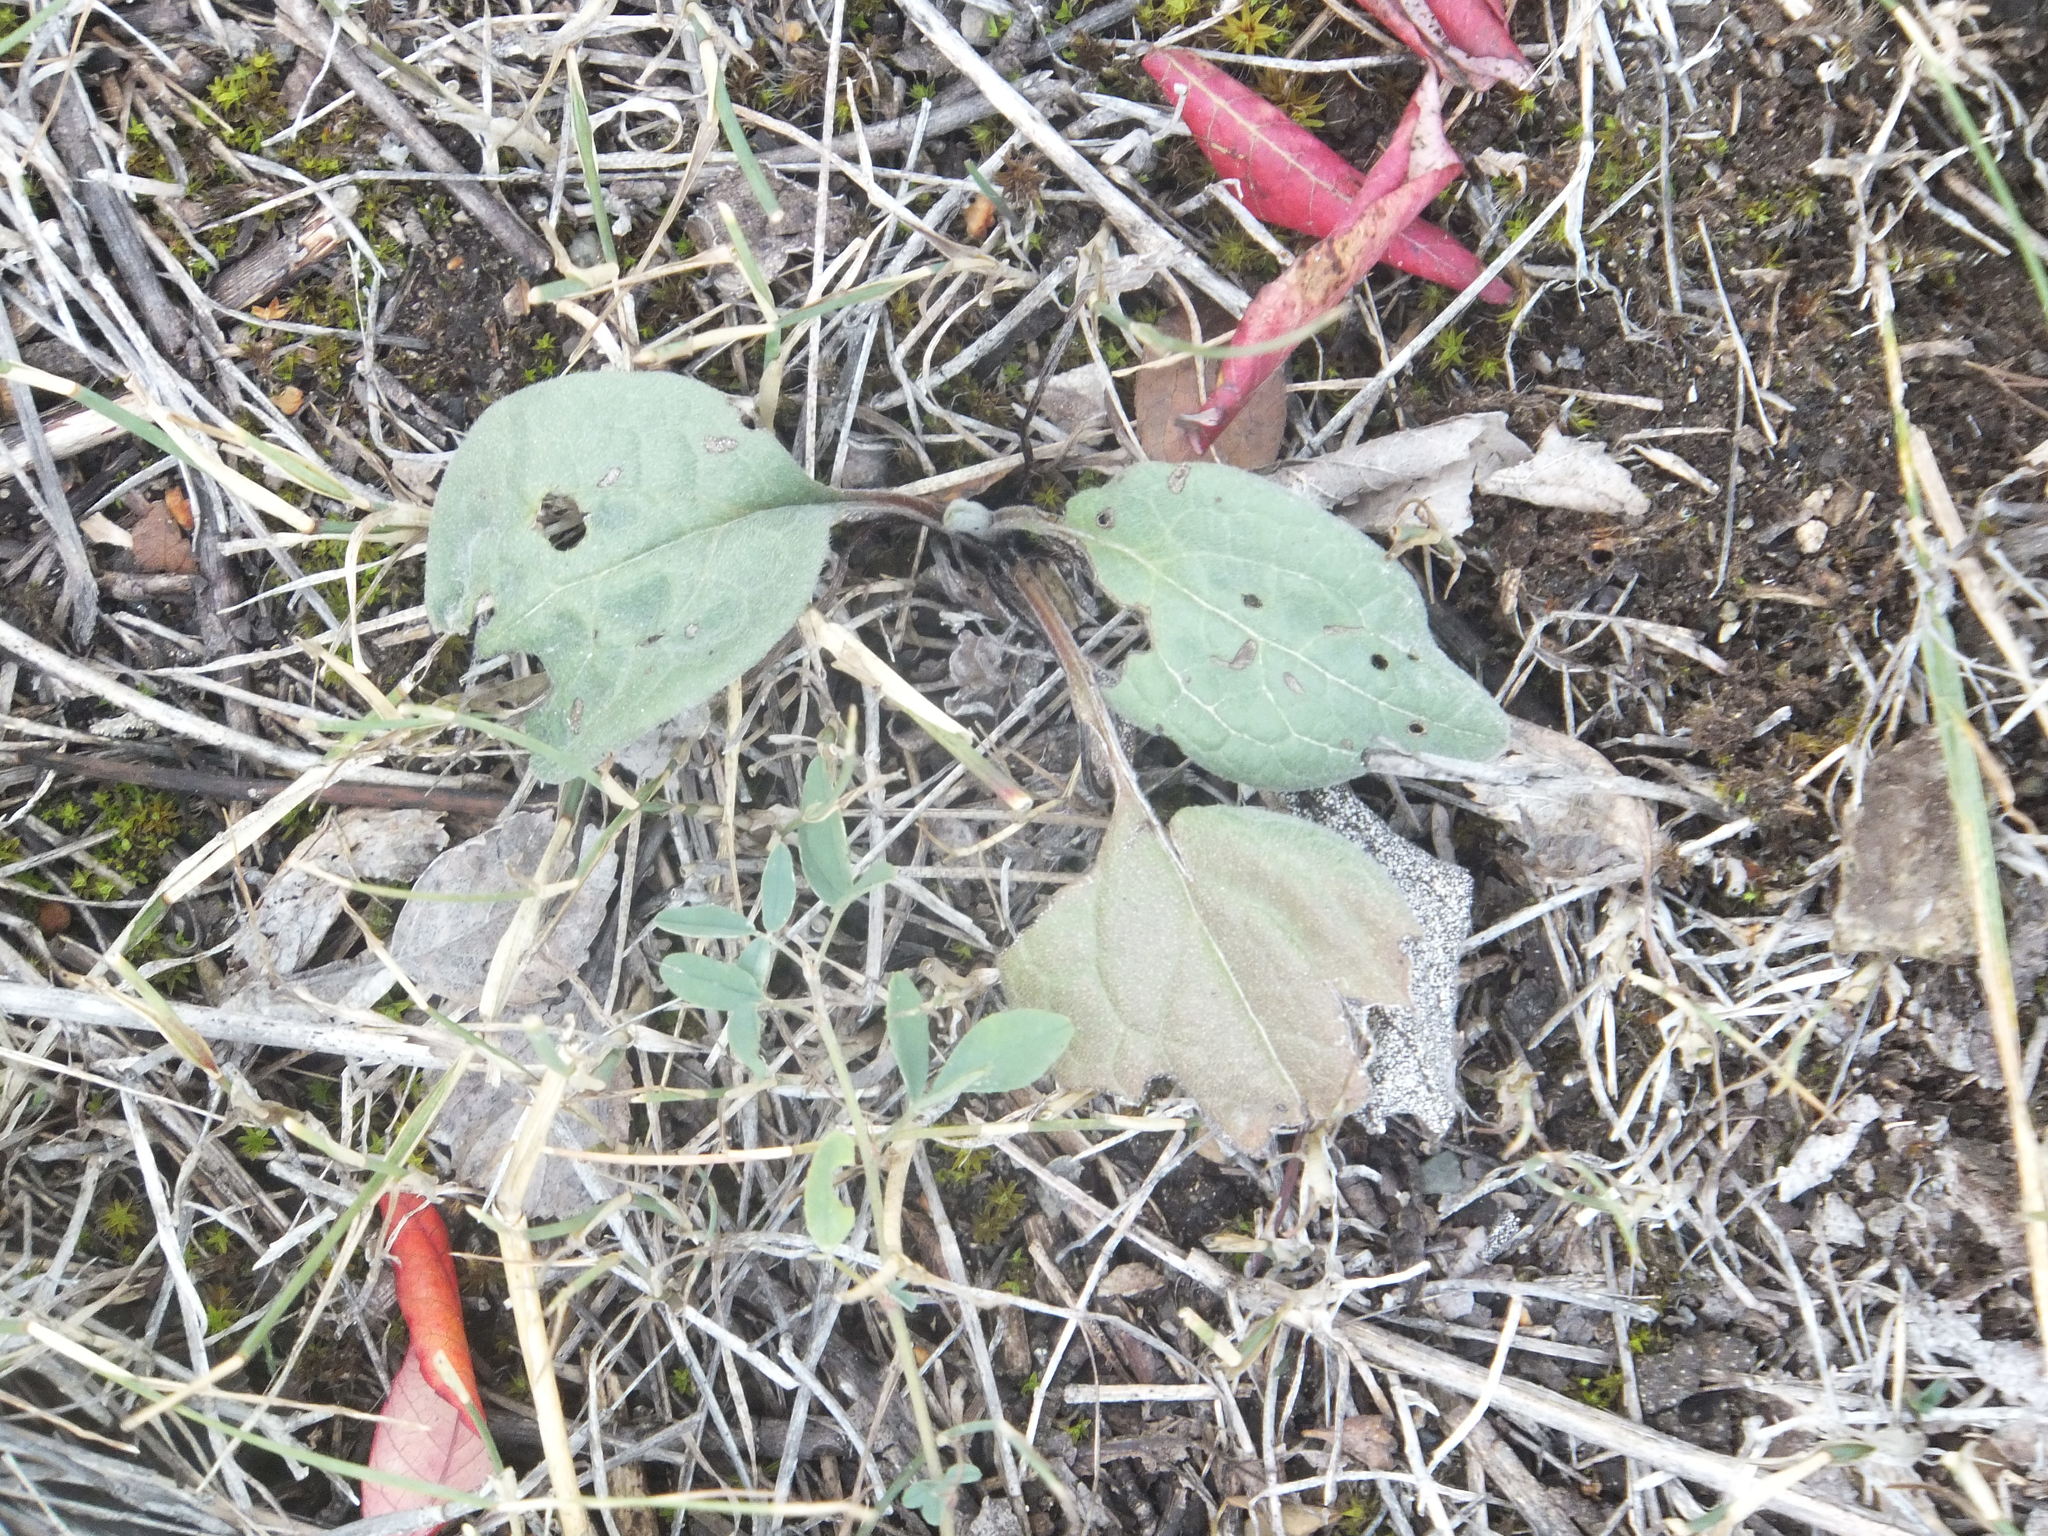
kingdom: Plantae
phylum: Tracheophyta
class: Magnoliopsida
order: Boraginales
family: Boraginaceae
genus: Cynoglossum
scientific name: Cynoglossum officinale
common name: Hound's-tongue
